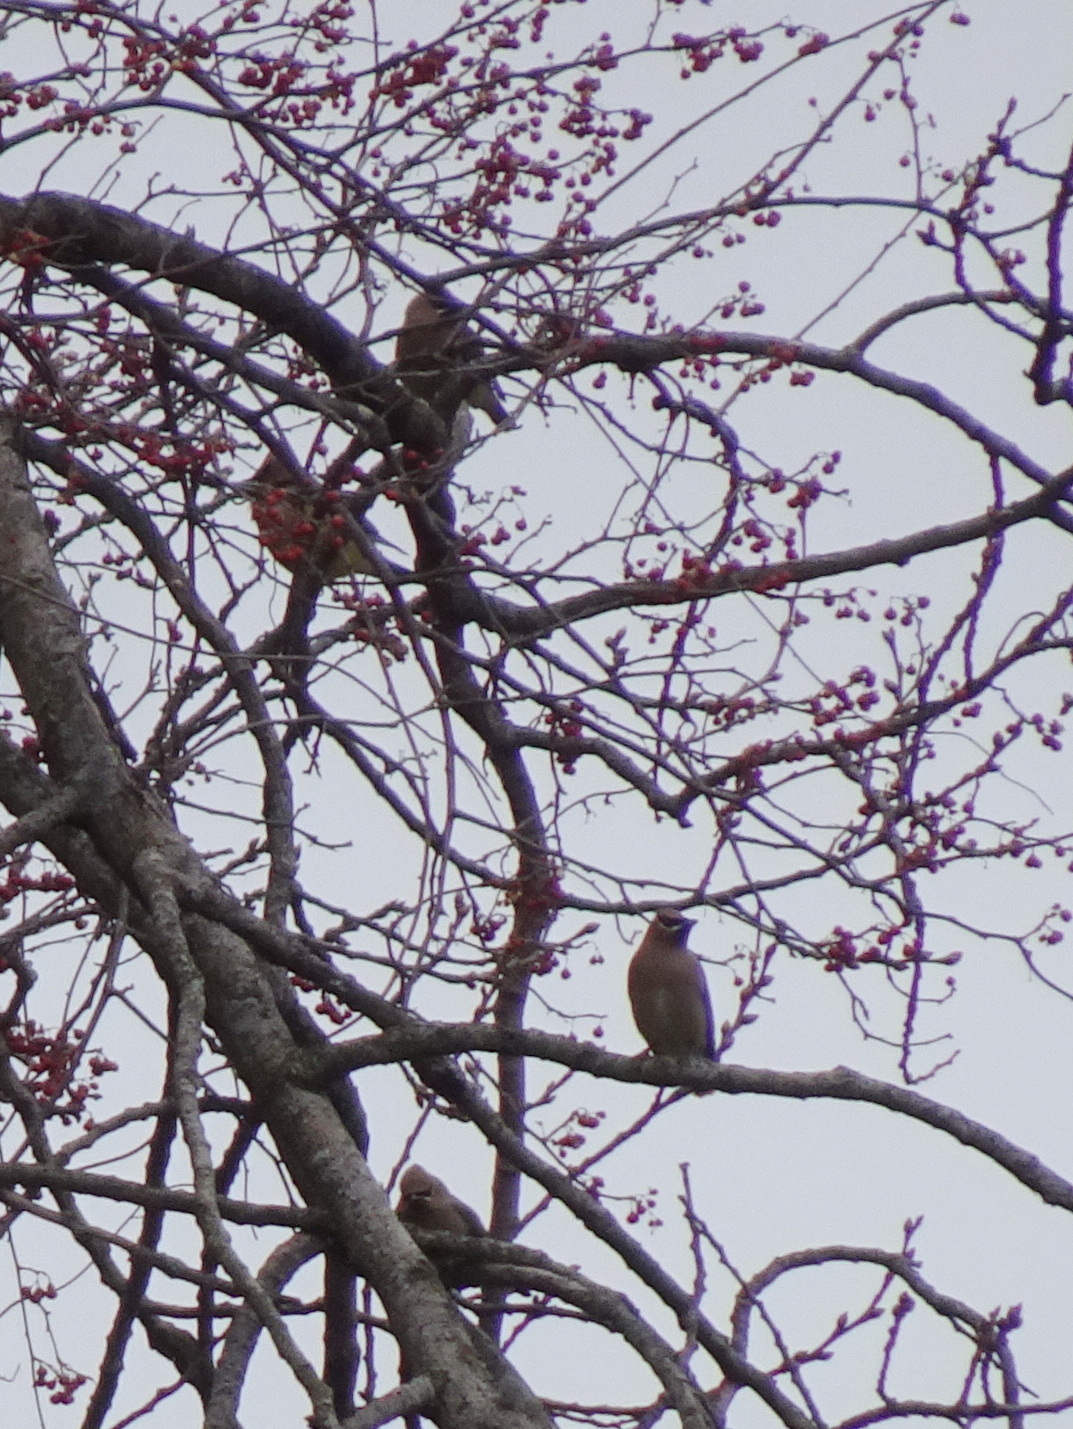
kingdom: Animalia
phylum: Chordata
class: Aves
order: Passeriformes
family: Bombycillidae
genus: Bombycilla
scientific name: Bombycilla cedrorum
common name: Cedar waxwing
